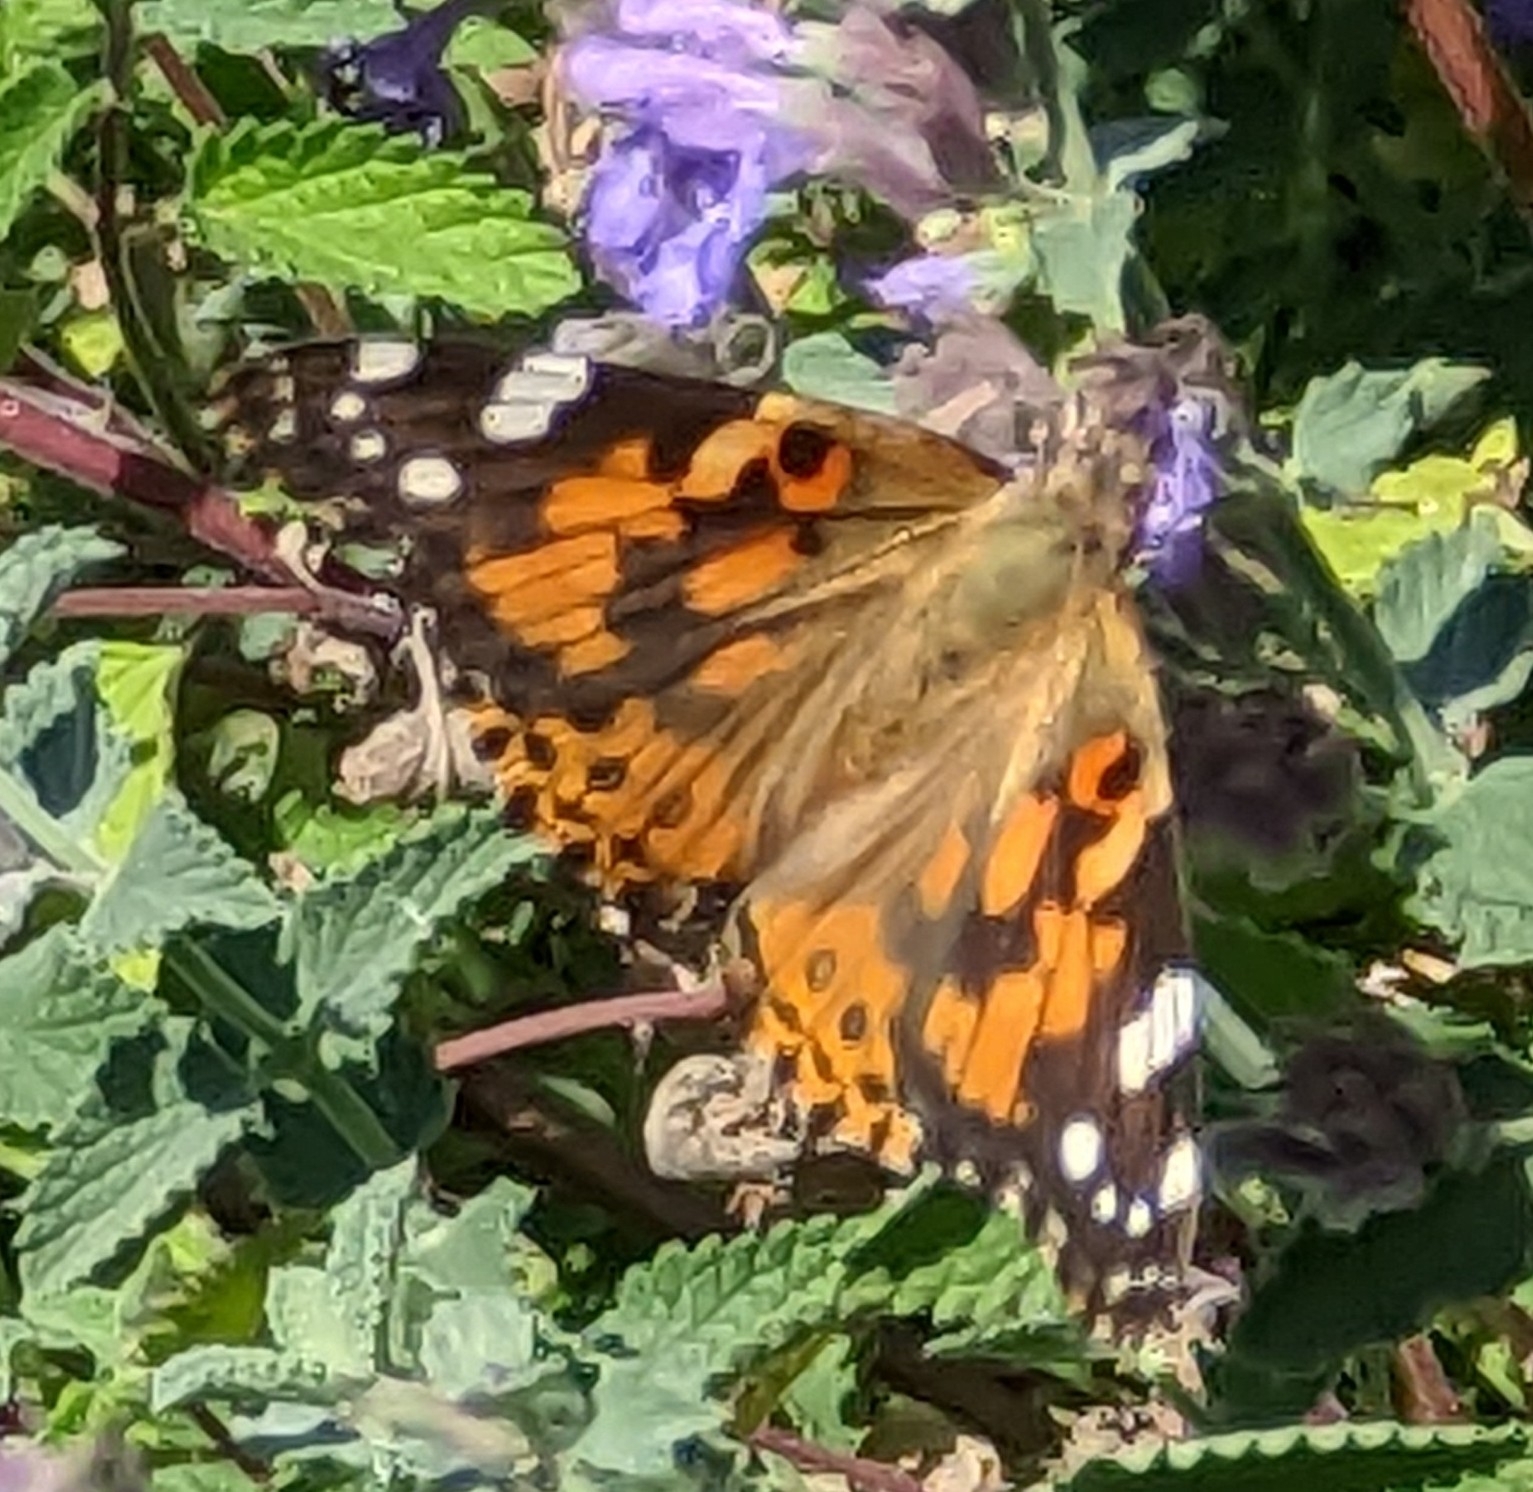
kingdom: Animalia
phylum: Arthropoda
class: Insecta
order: Lepidoptera
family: Nymphalidae
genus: Vanessa
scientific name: Vanessa cardui
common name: Painted lady
